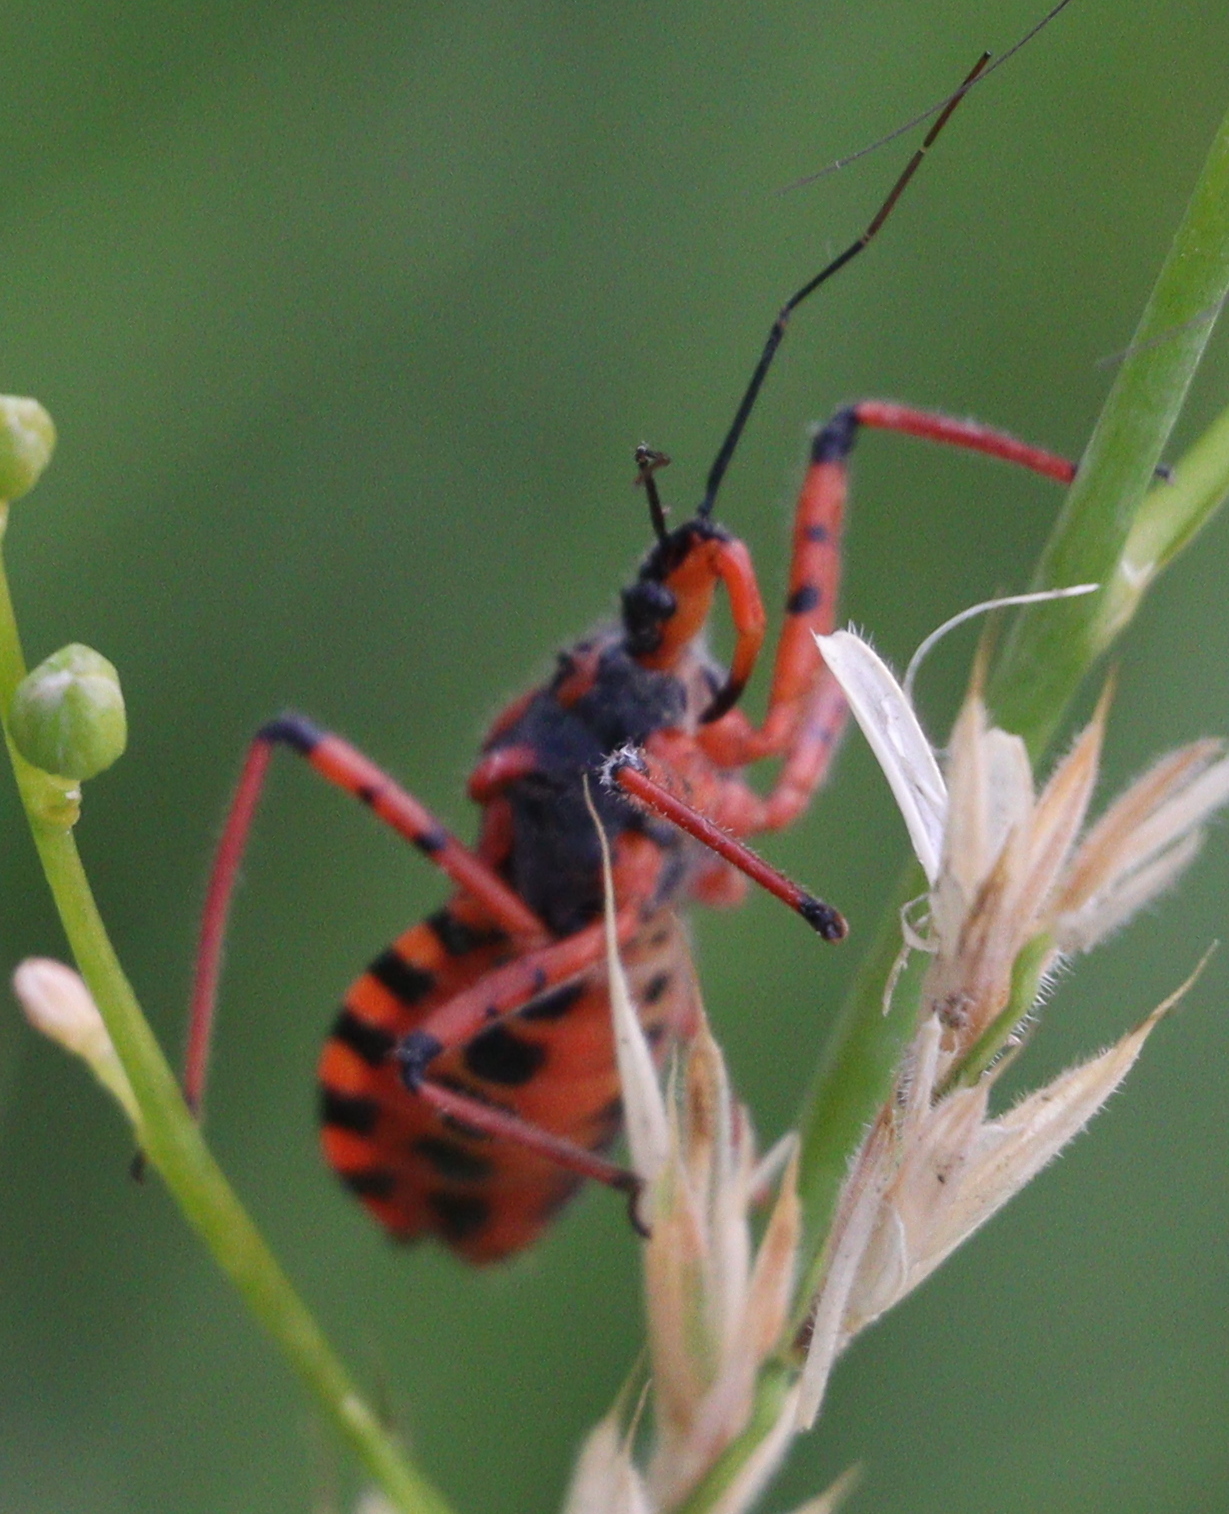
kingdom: Animalia
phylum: Arthropoda
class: Insecta
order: Hemiptera
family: Reduviidae
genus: Rhynocoris
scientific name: Rhynocoris iracundus
